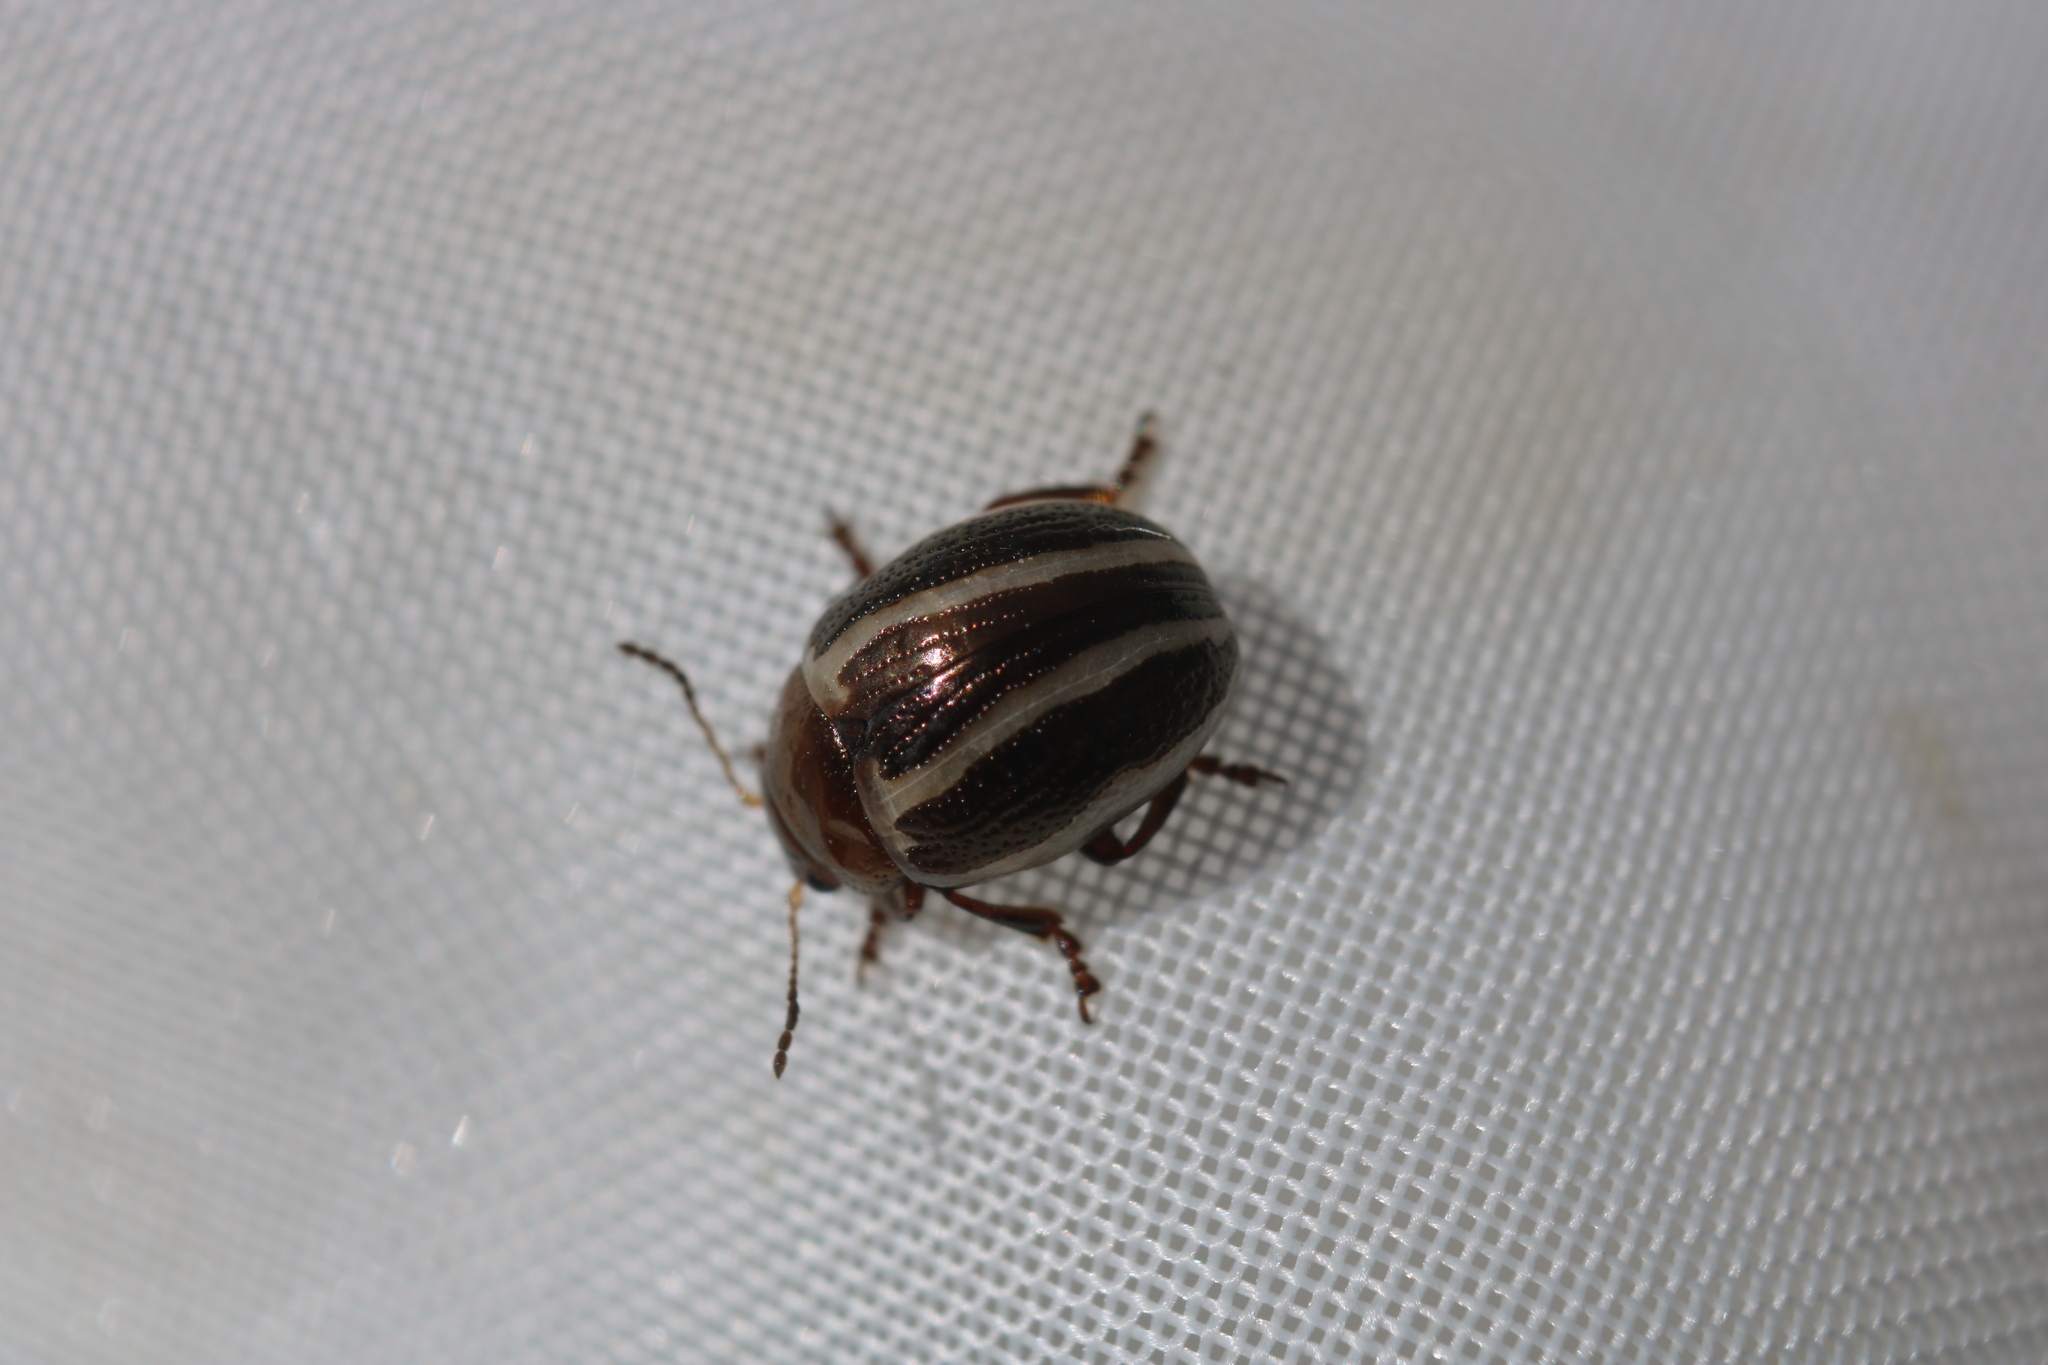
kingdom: Animalia
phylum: Arthropoda
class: Insecta
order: Coleoptera
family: Chrysomelidae
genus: Calligrapha
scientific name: Calligrapha bidenticola
